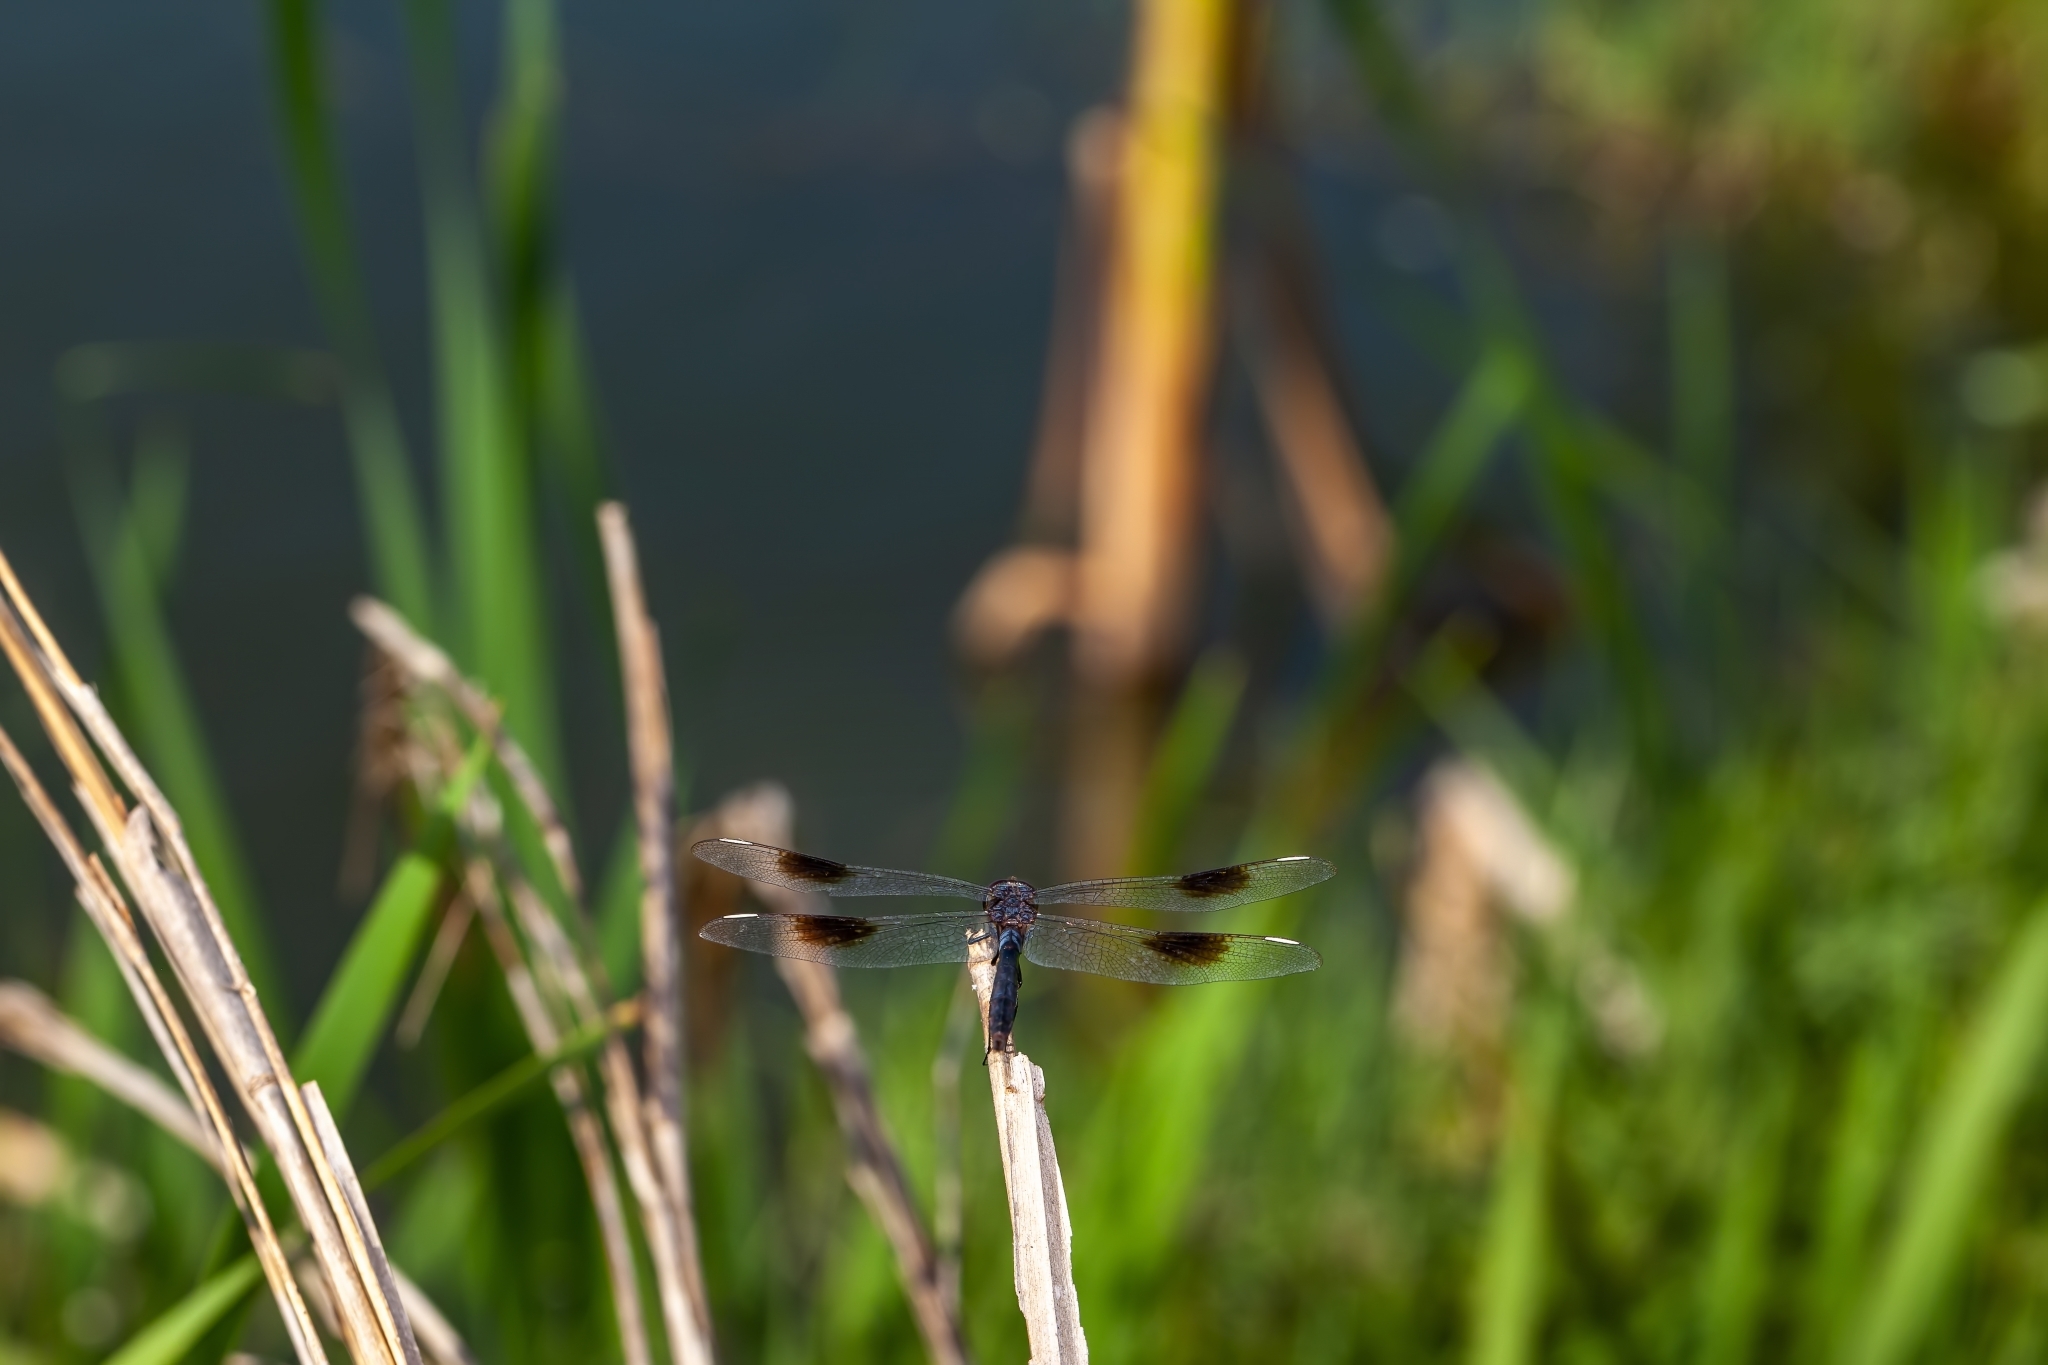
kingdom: Animalia
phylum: Arthropoda
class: Insecta
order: Odonata
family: Libellulidae
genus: Brachymesia
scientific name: Brachymesia gravida
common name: Four-spotted pennant
